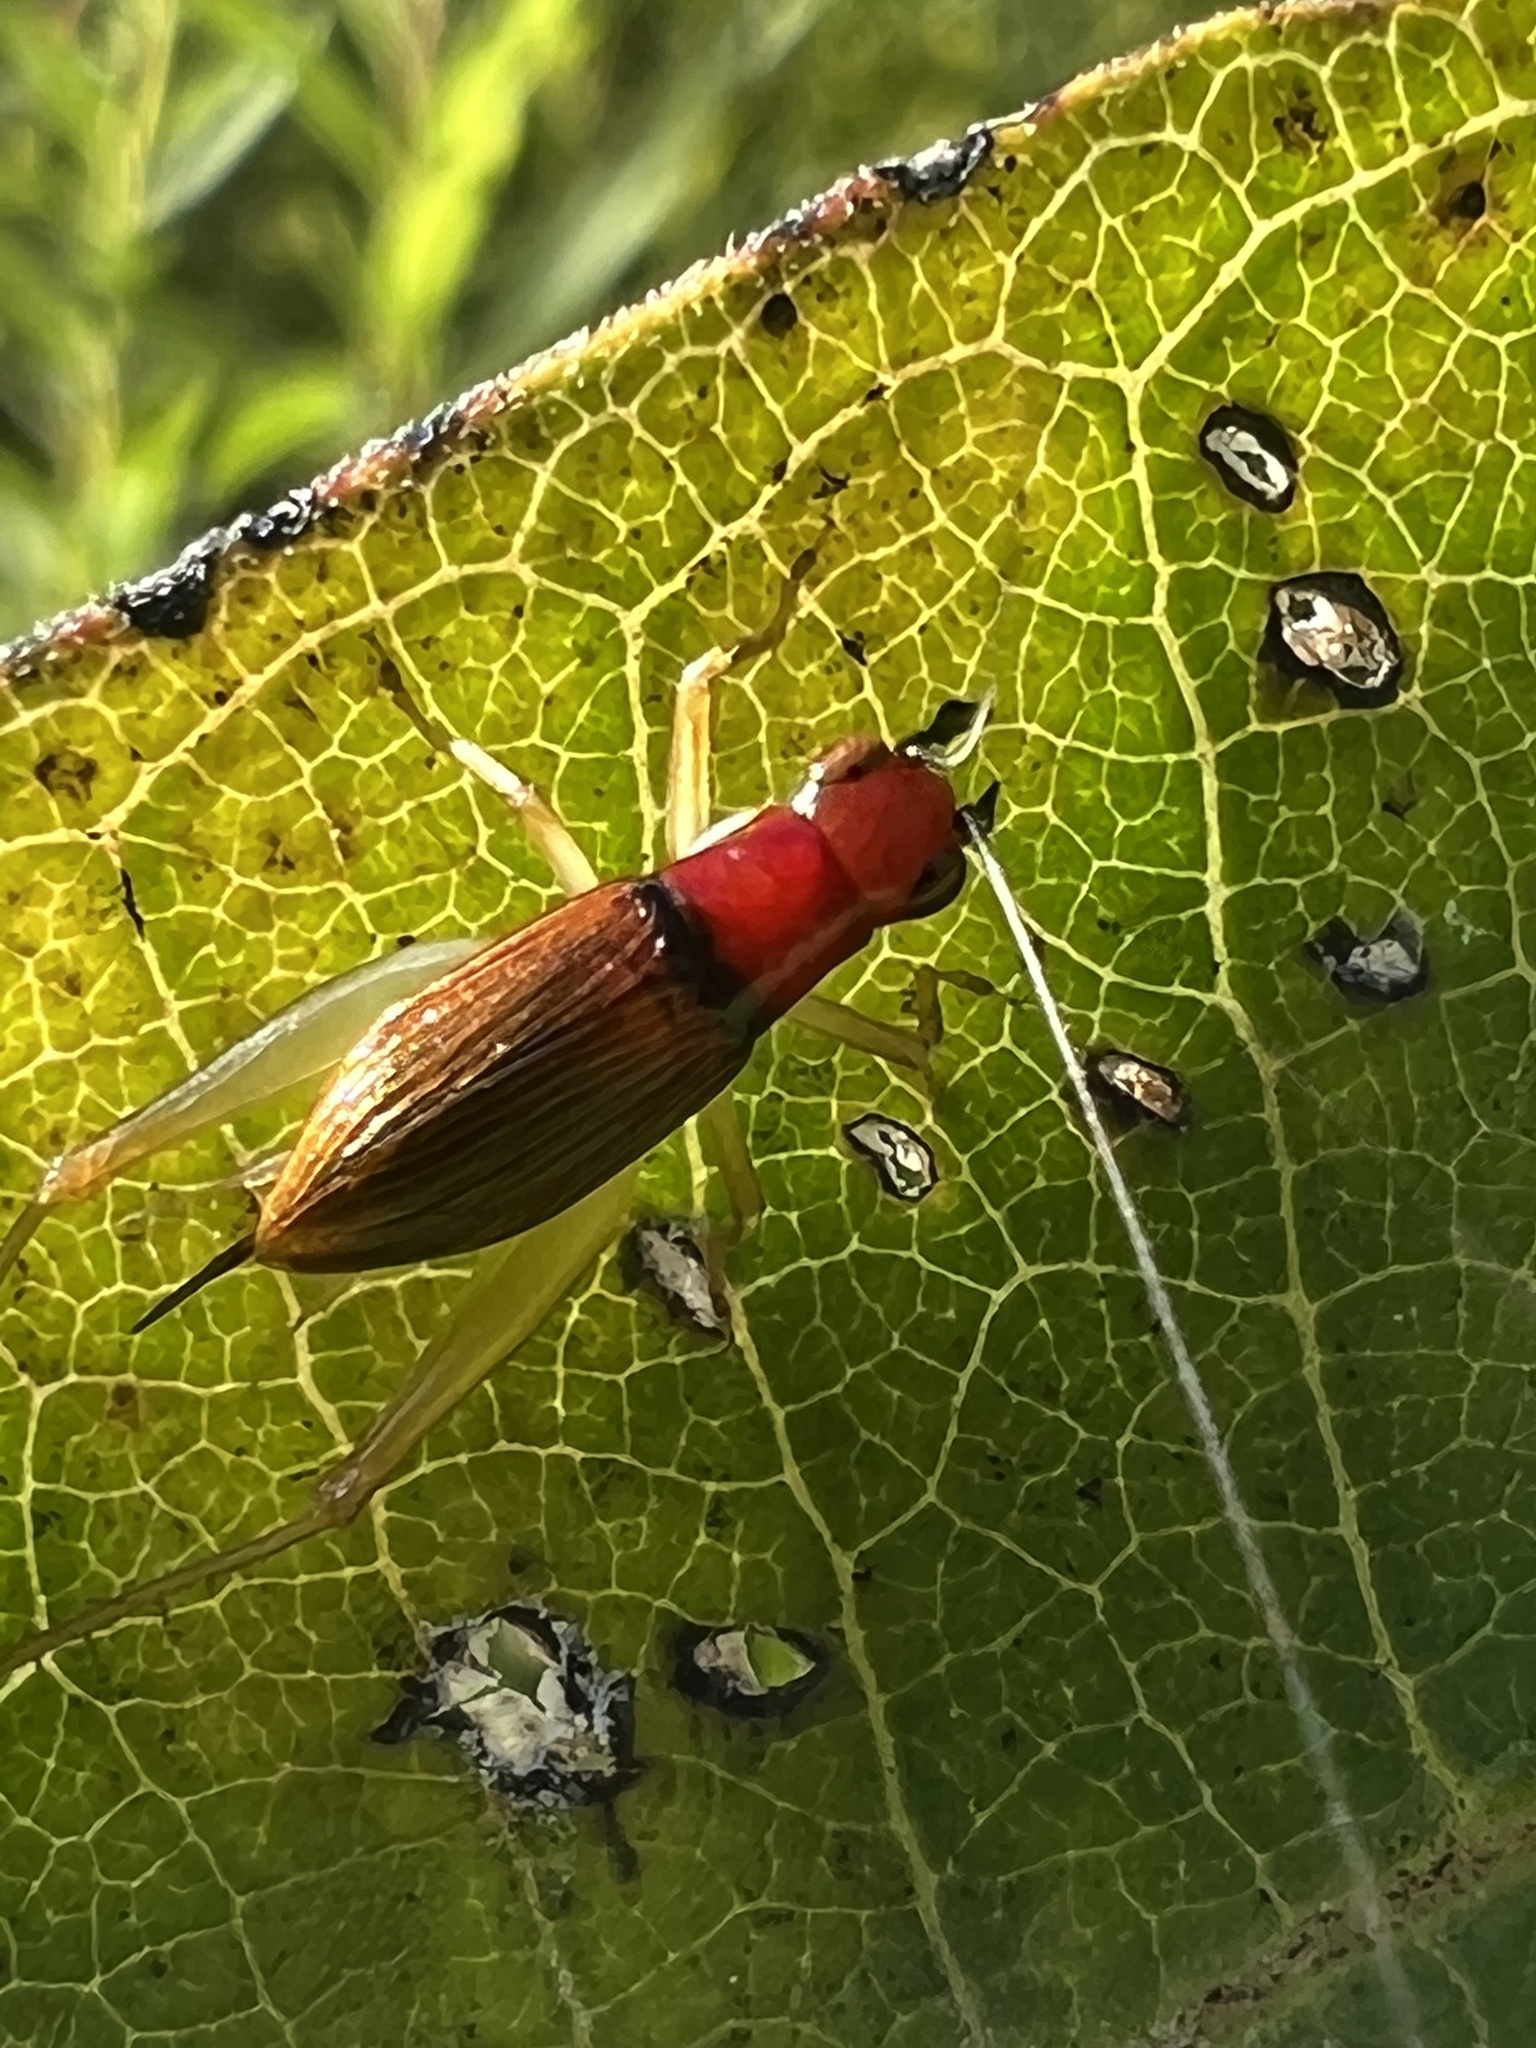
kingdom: Animalia
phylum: Arthropoda
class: Insecta
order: Orthoptera
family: Trigonidiidae
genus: Phyllopalpus
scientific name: Phyllopalpus pulchellus
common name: Handsome trig
